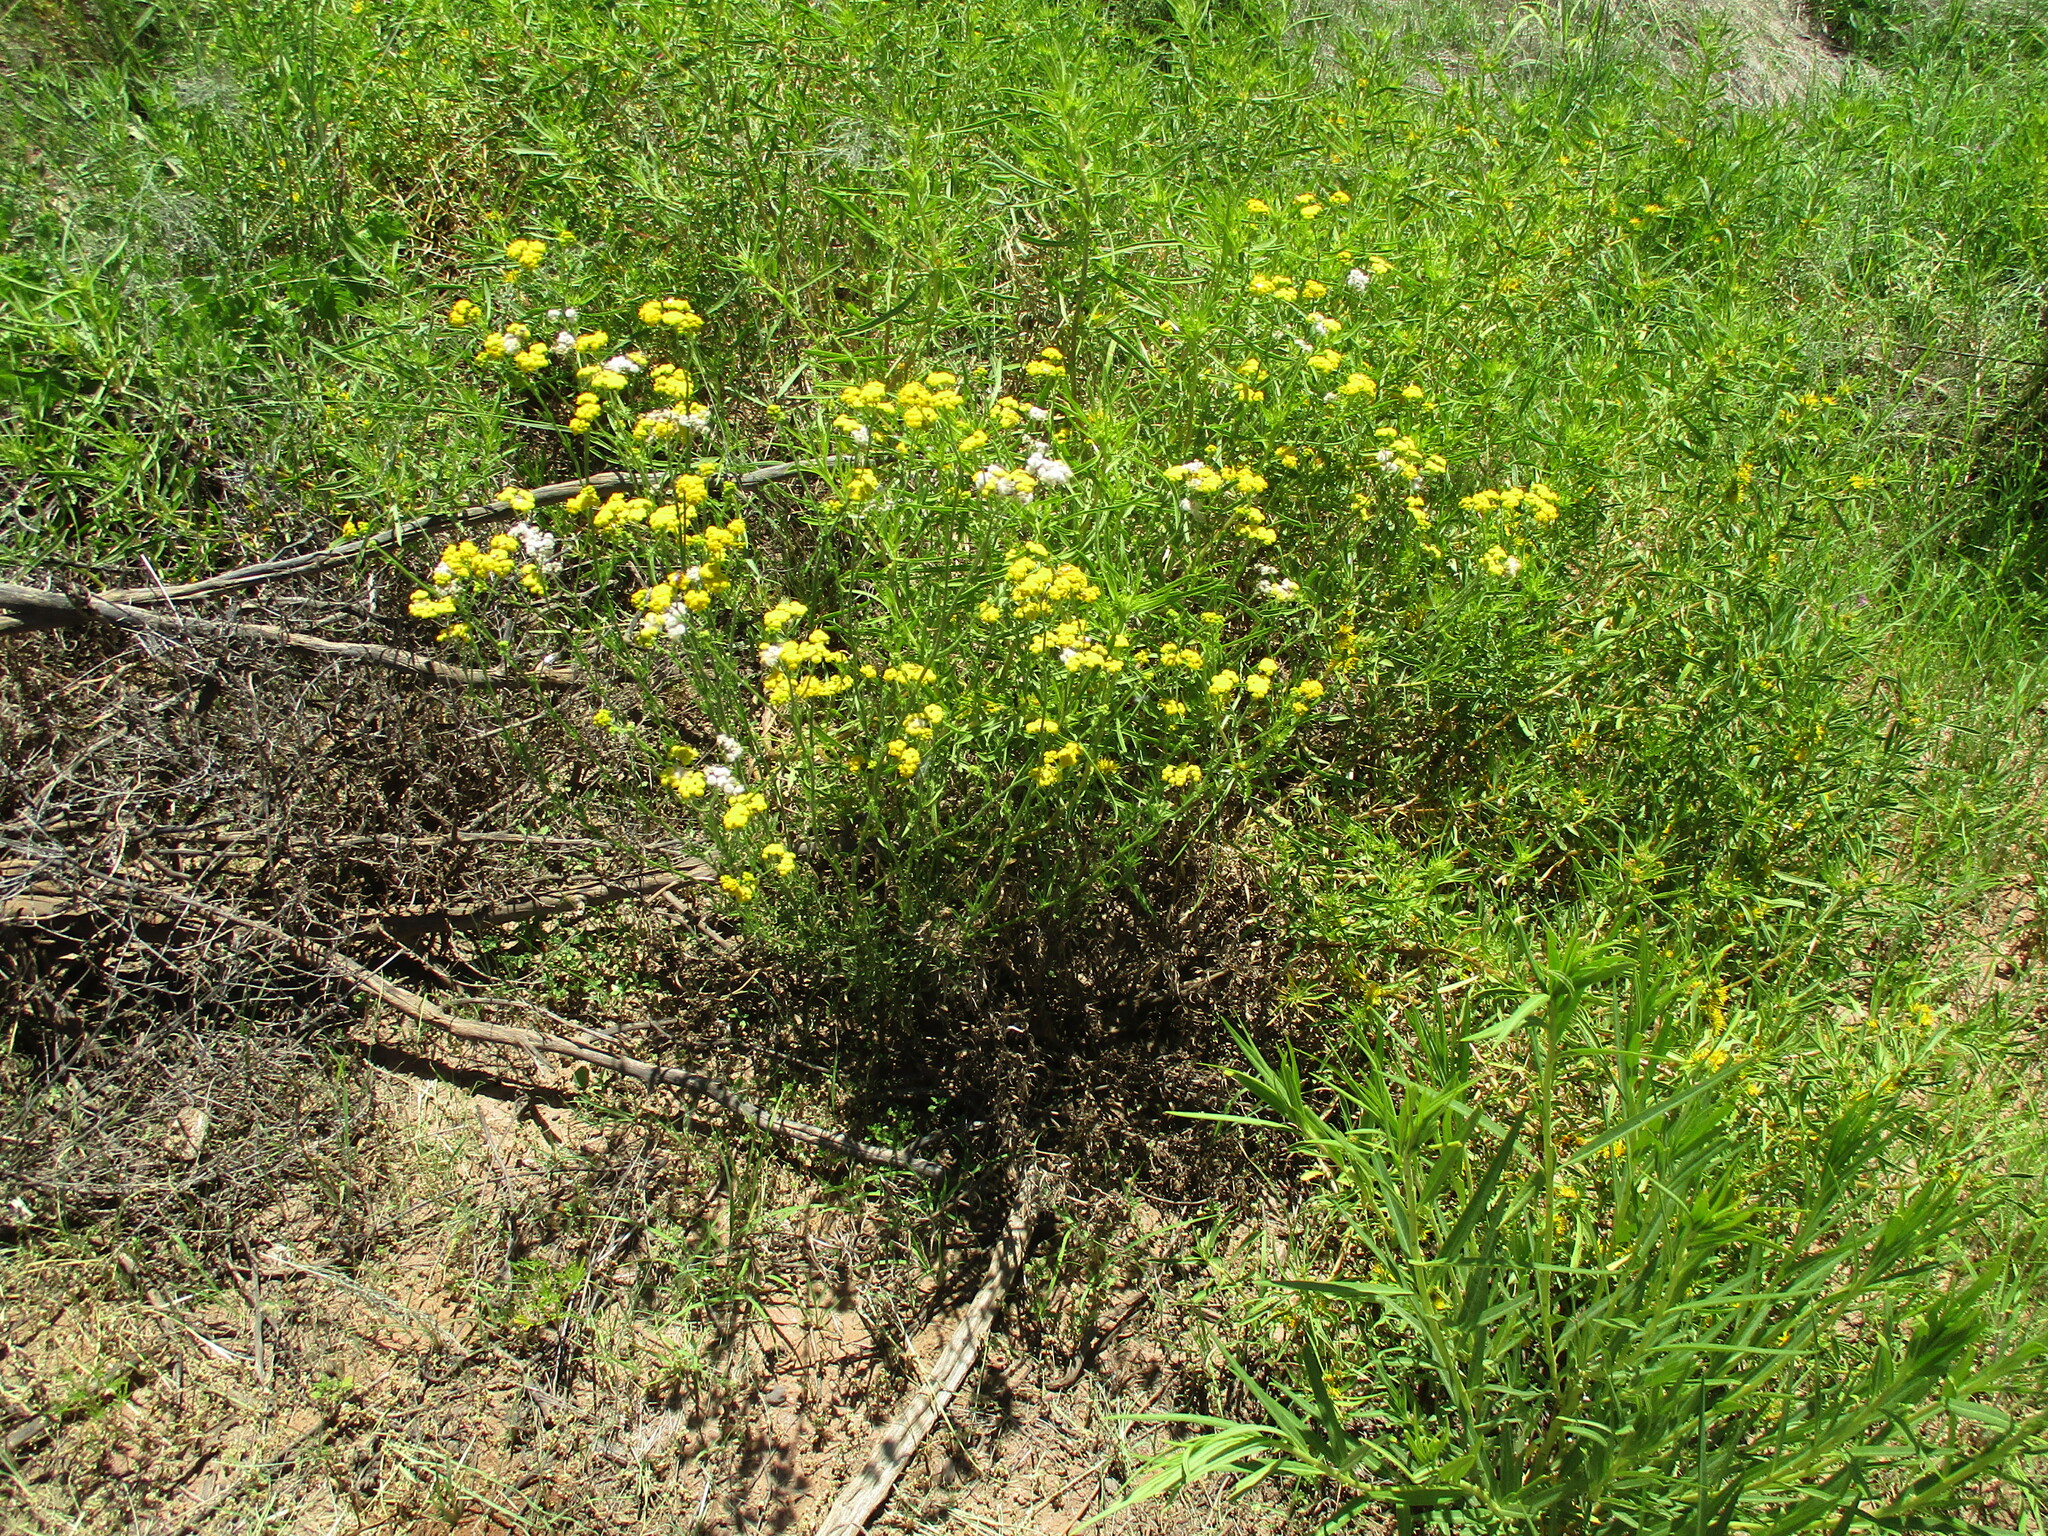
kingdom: Plantae
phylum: Tracheophyta
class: Magnoliopsida
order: Asterales
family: Asteraceae
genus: Nidorella
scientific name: Nidorella resedifolia
